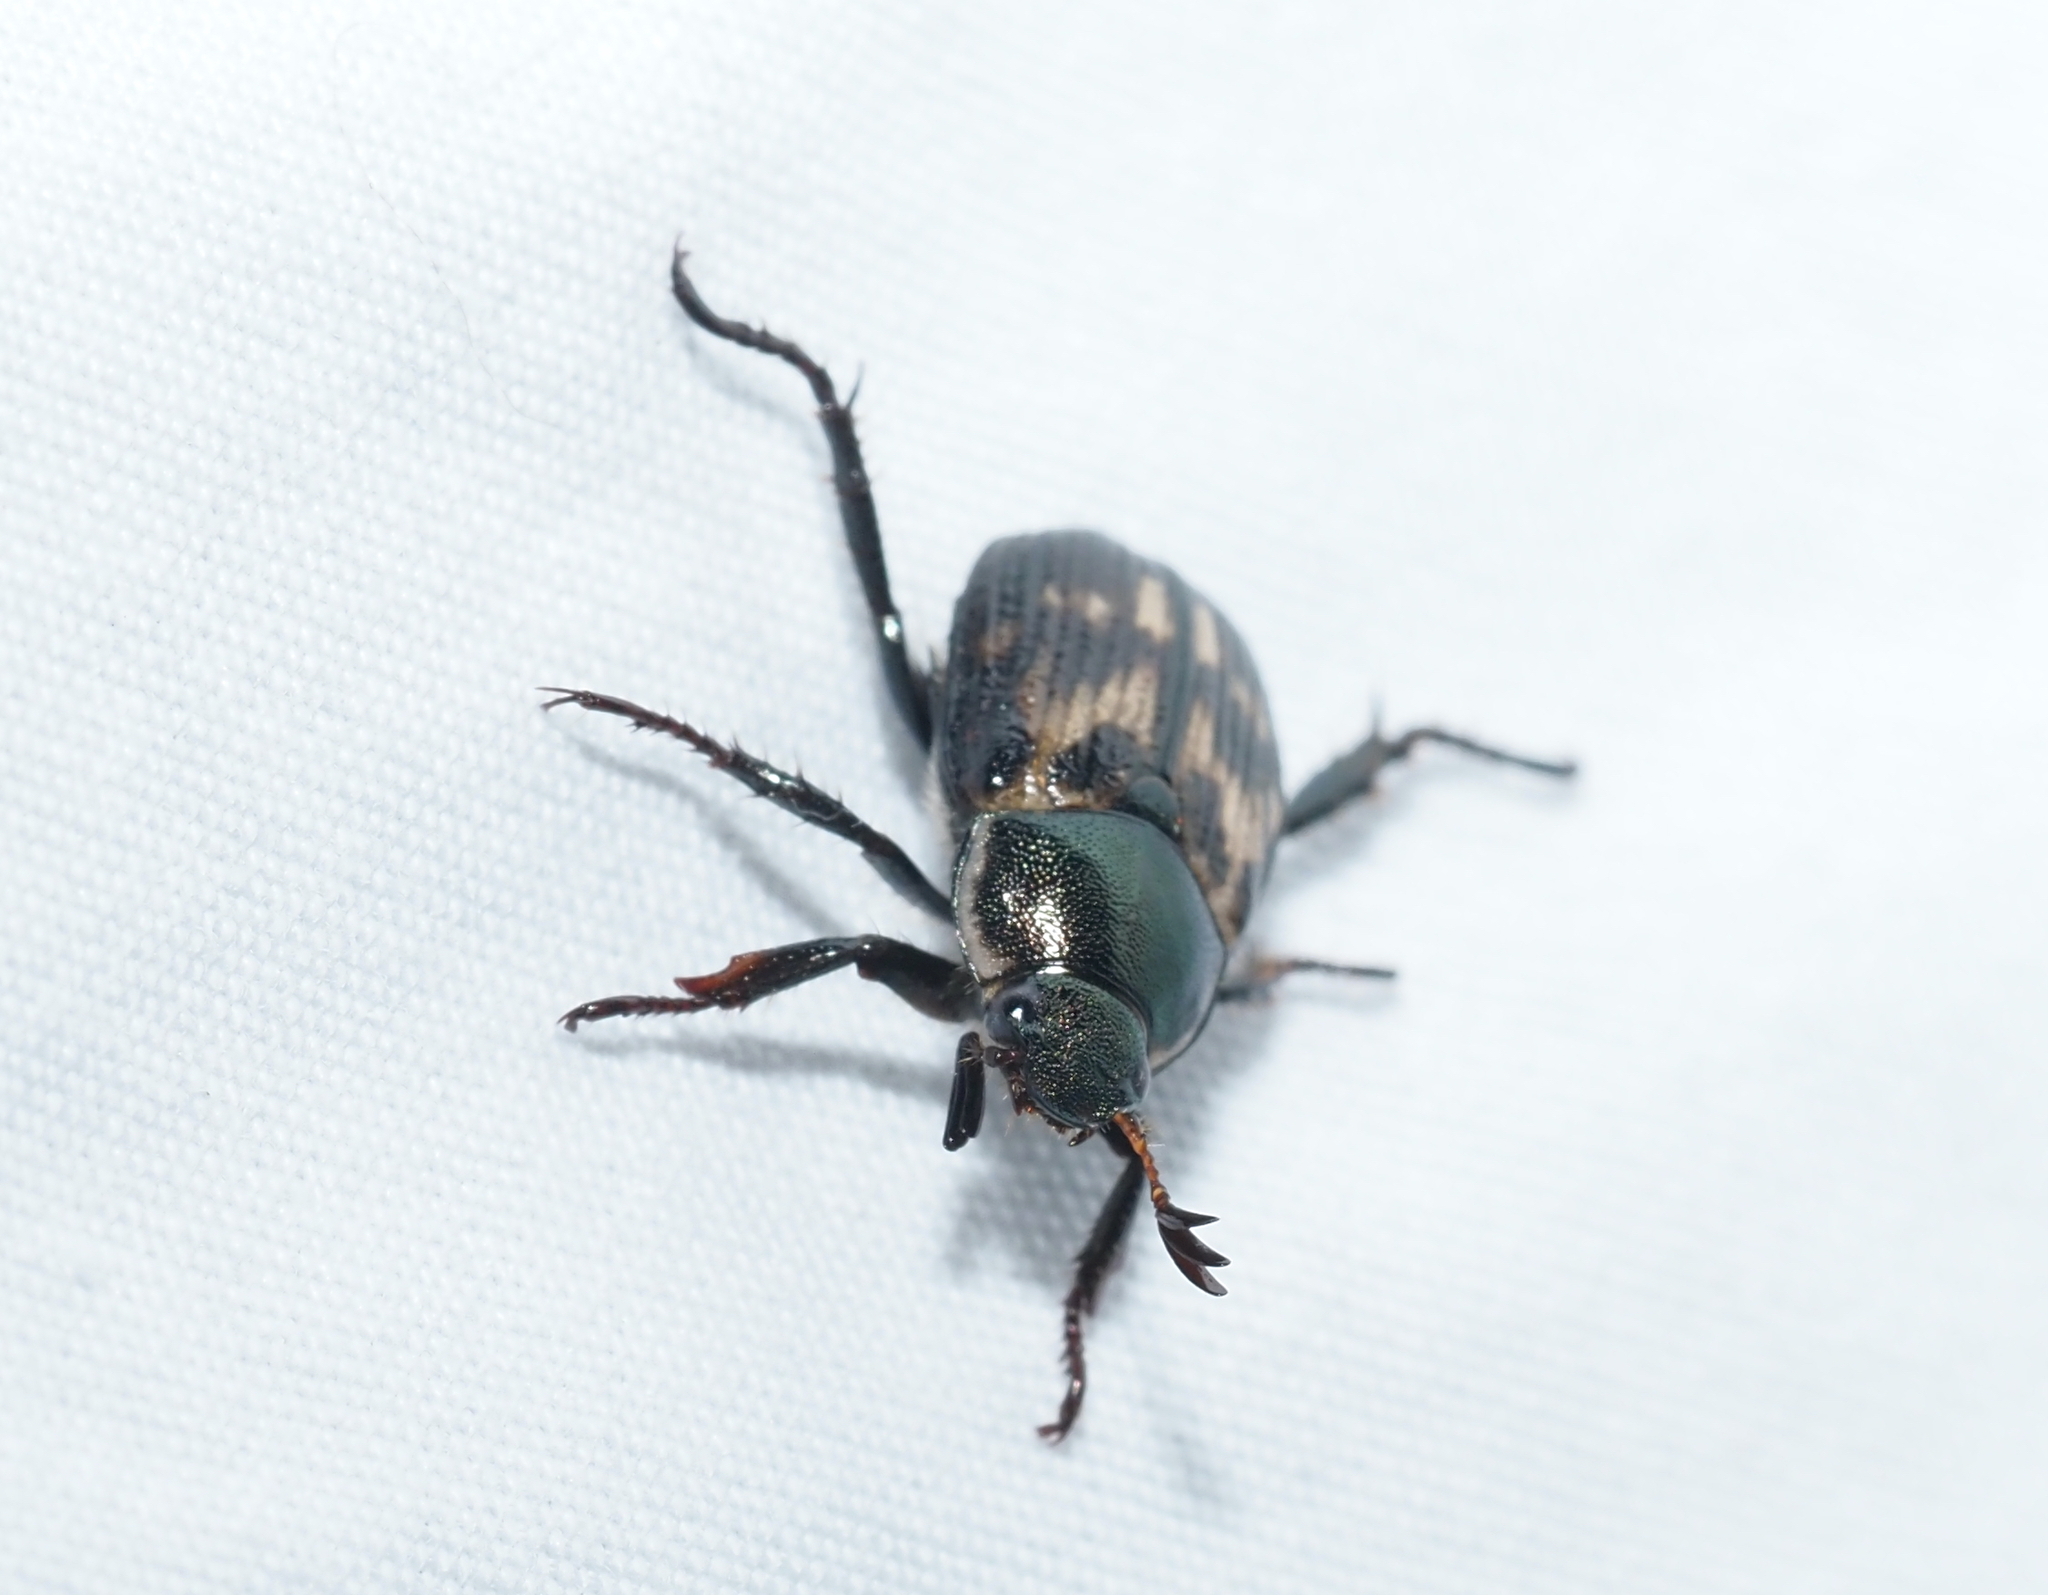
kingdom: Animalia
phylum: Arthropoda
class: Insecta
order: Coleoptera
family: Scarabaeidae
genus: Exomala
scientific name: Exomala orientalis
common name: Oriental beetle
